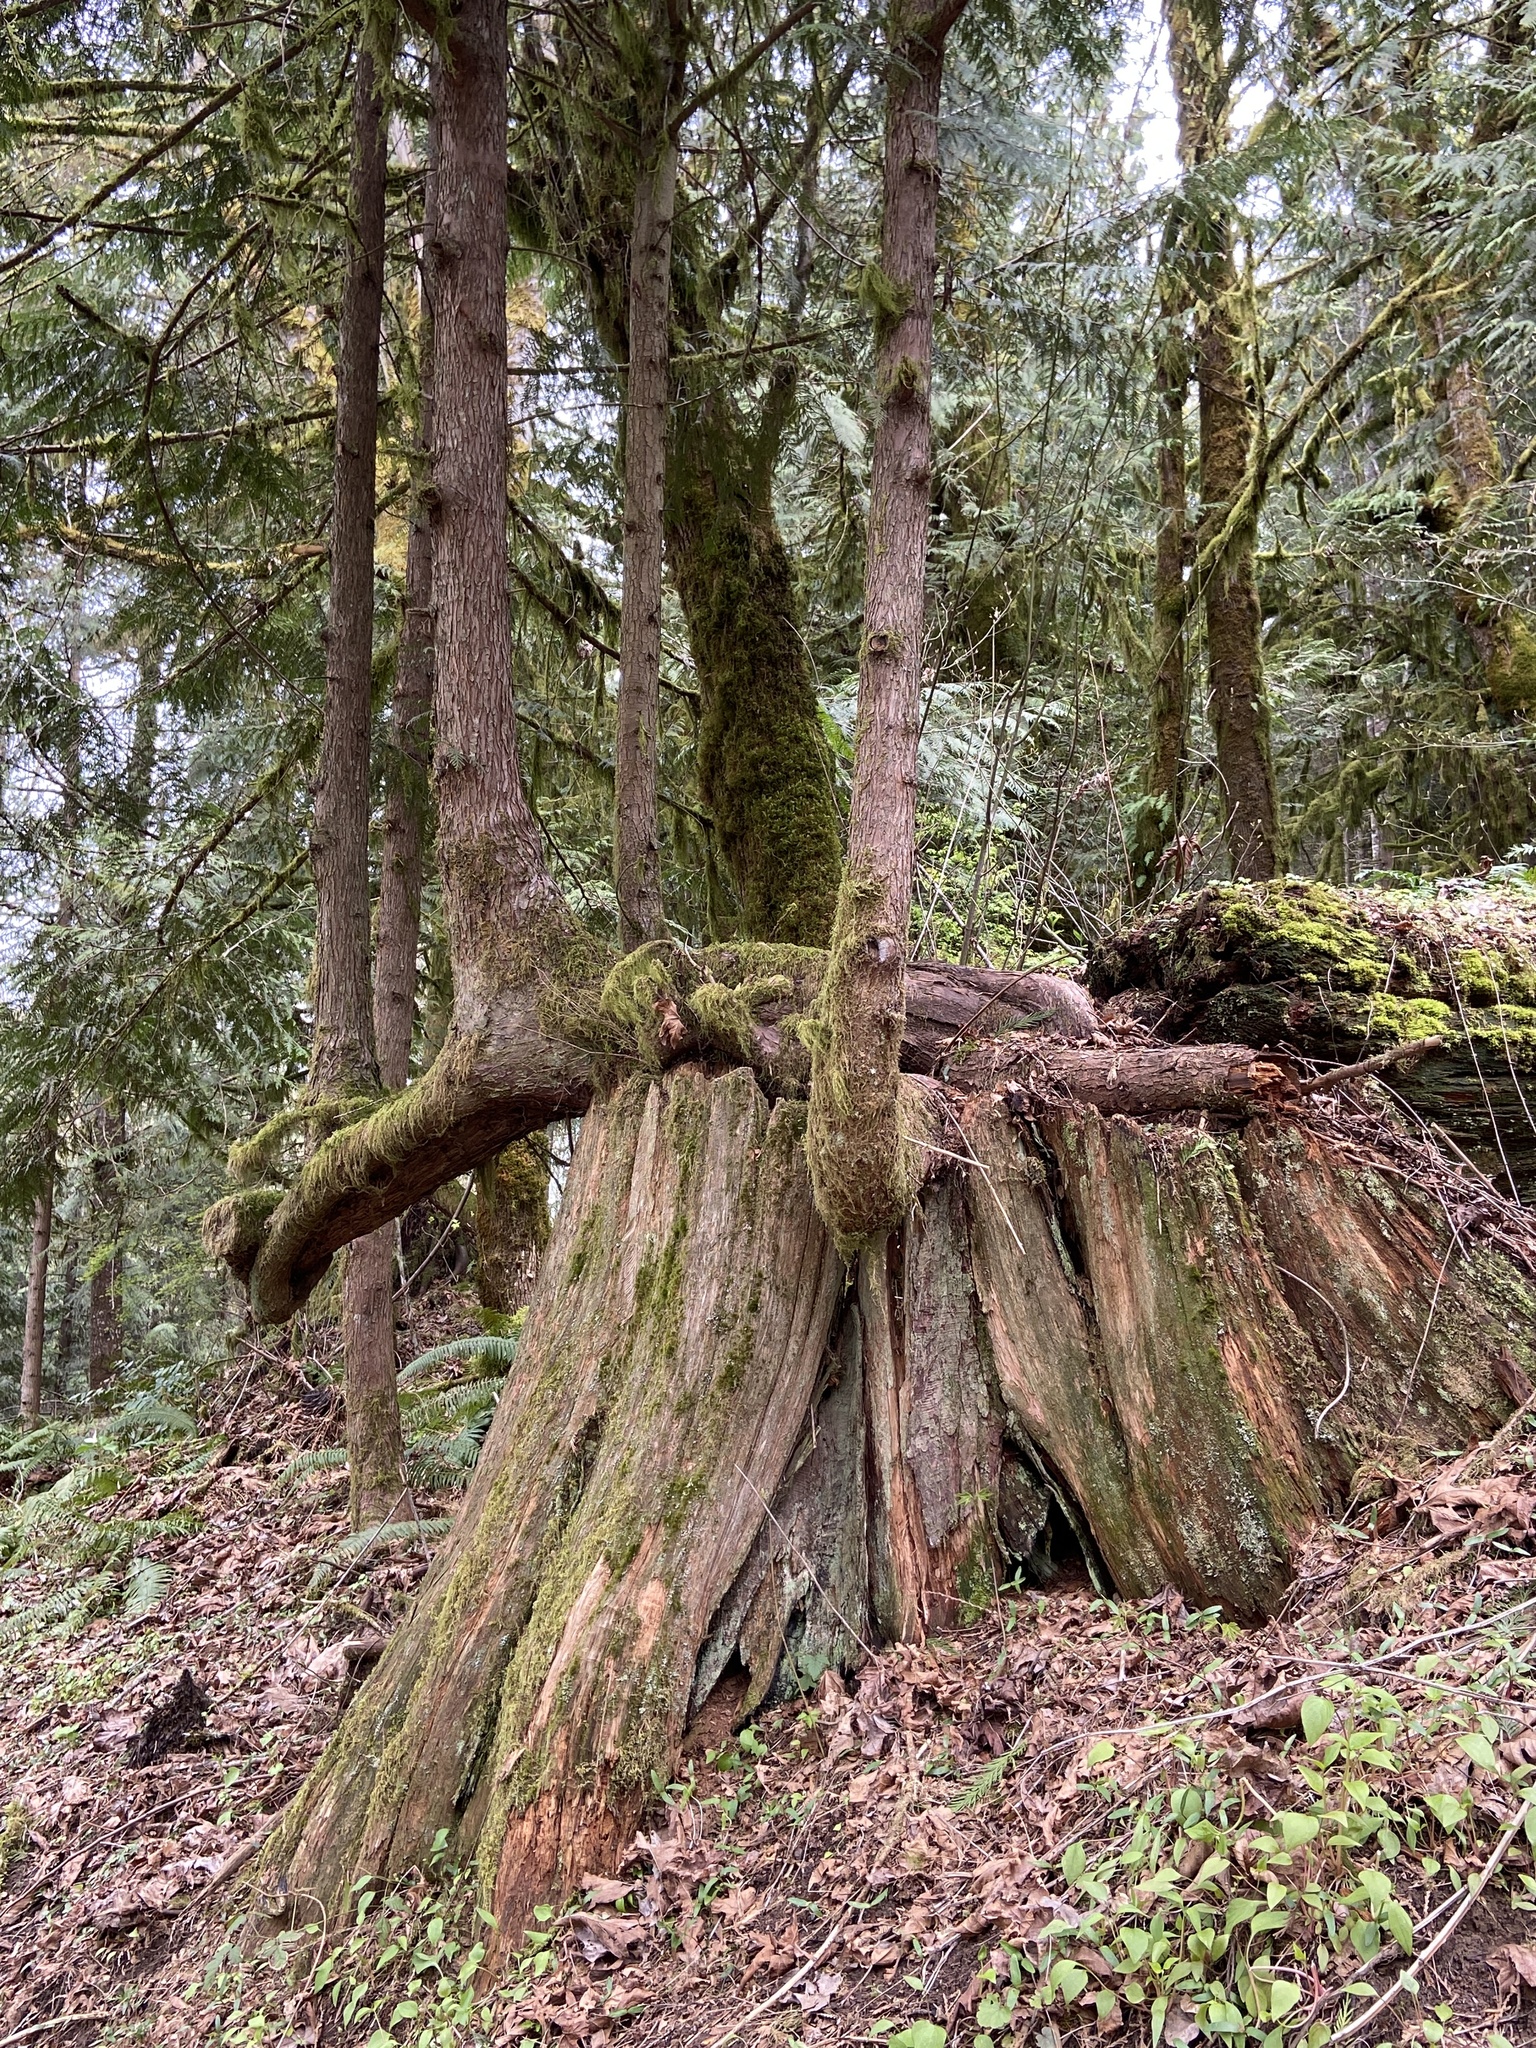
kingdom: Plantae
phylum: Tracheophyta
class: Pinopsida
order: Pinales
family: Cupressaceae
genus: Thuja
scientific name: Thuja plicata
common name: Western red-cedar
